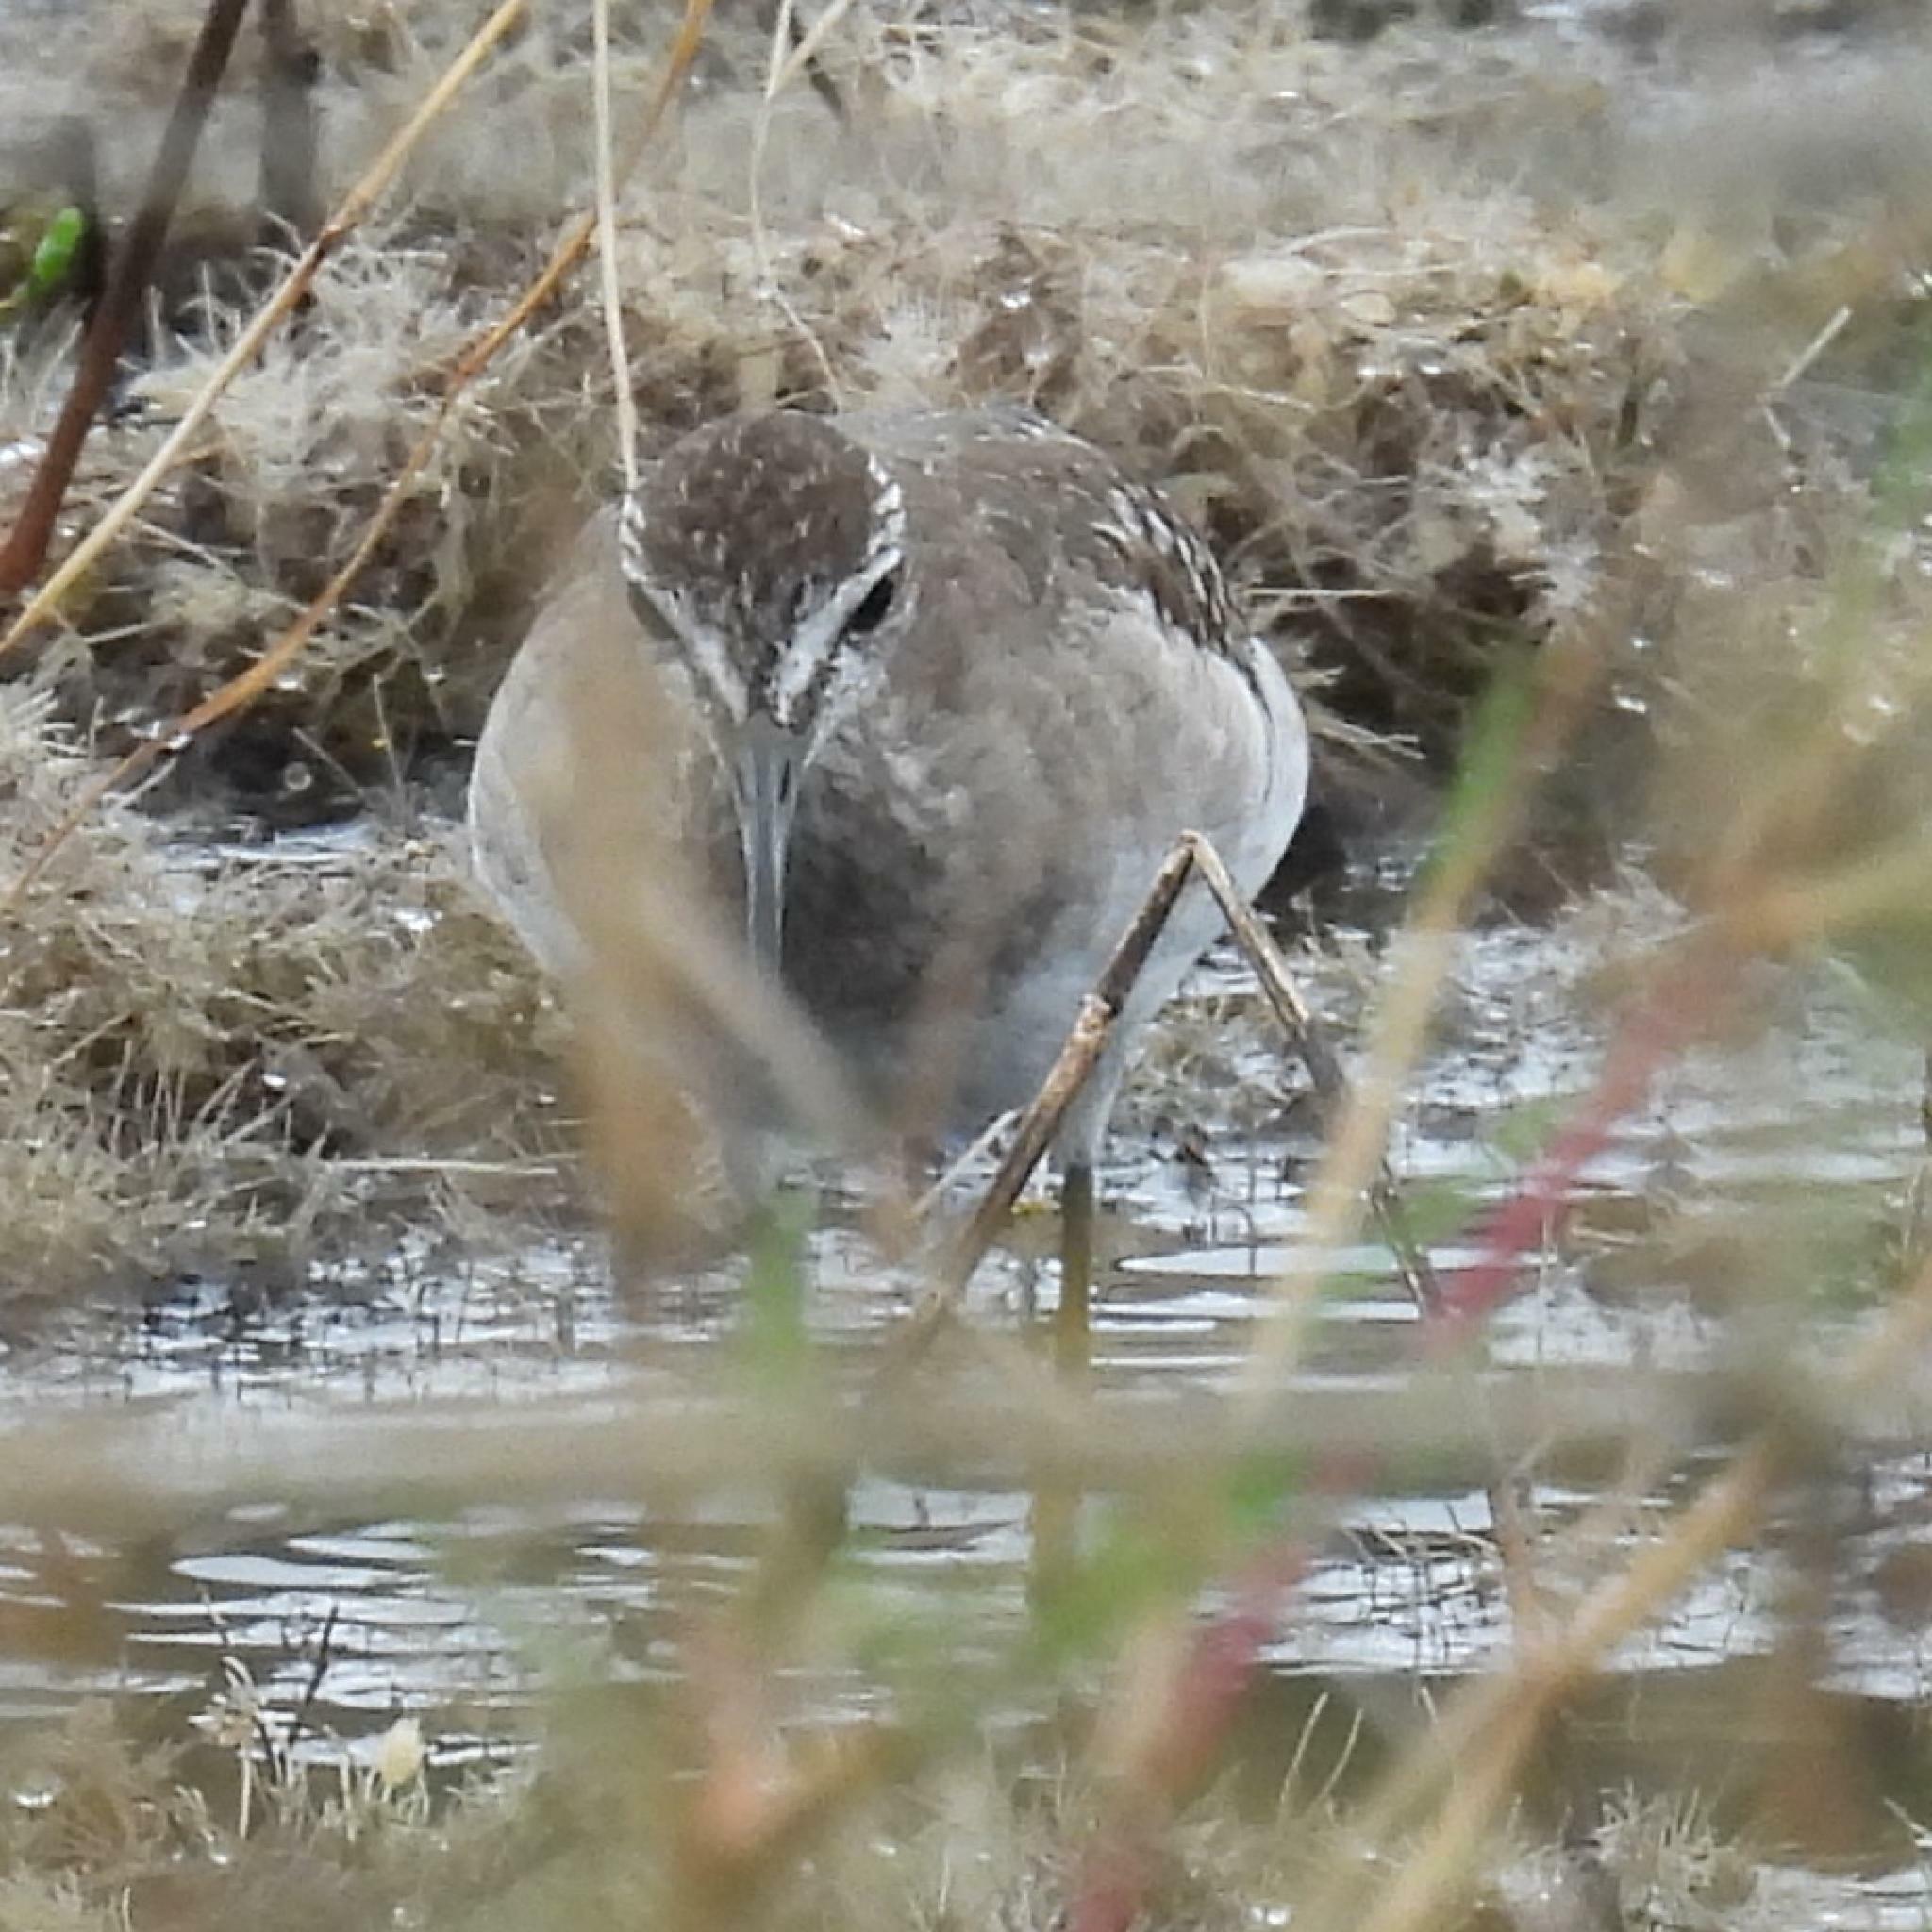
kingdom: Animalia
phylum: Chordata
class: Aves
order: Charadriiformes
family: Scolopacidae
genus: Tringa
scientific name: Tringa glareola
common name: Wood sandpiper
